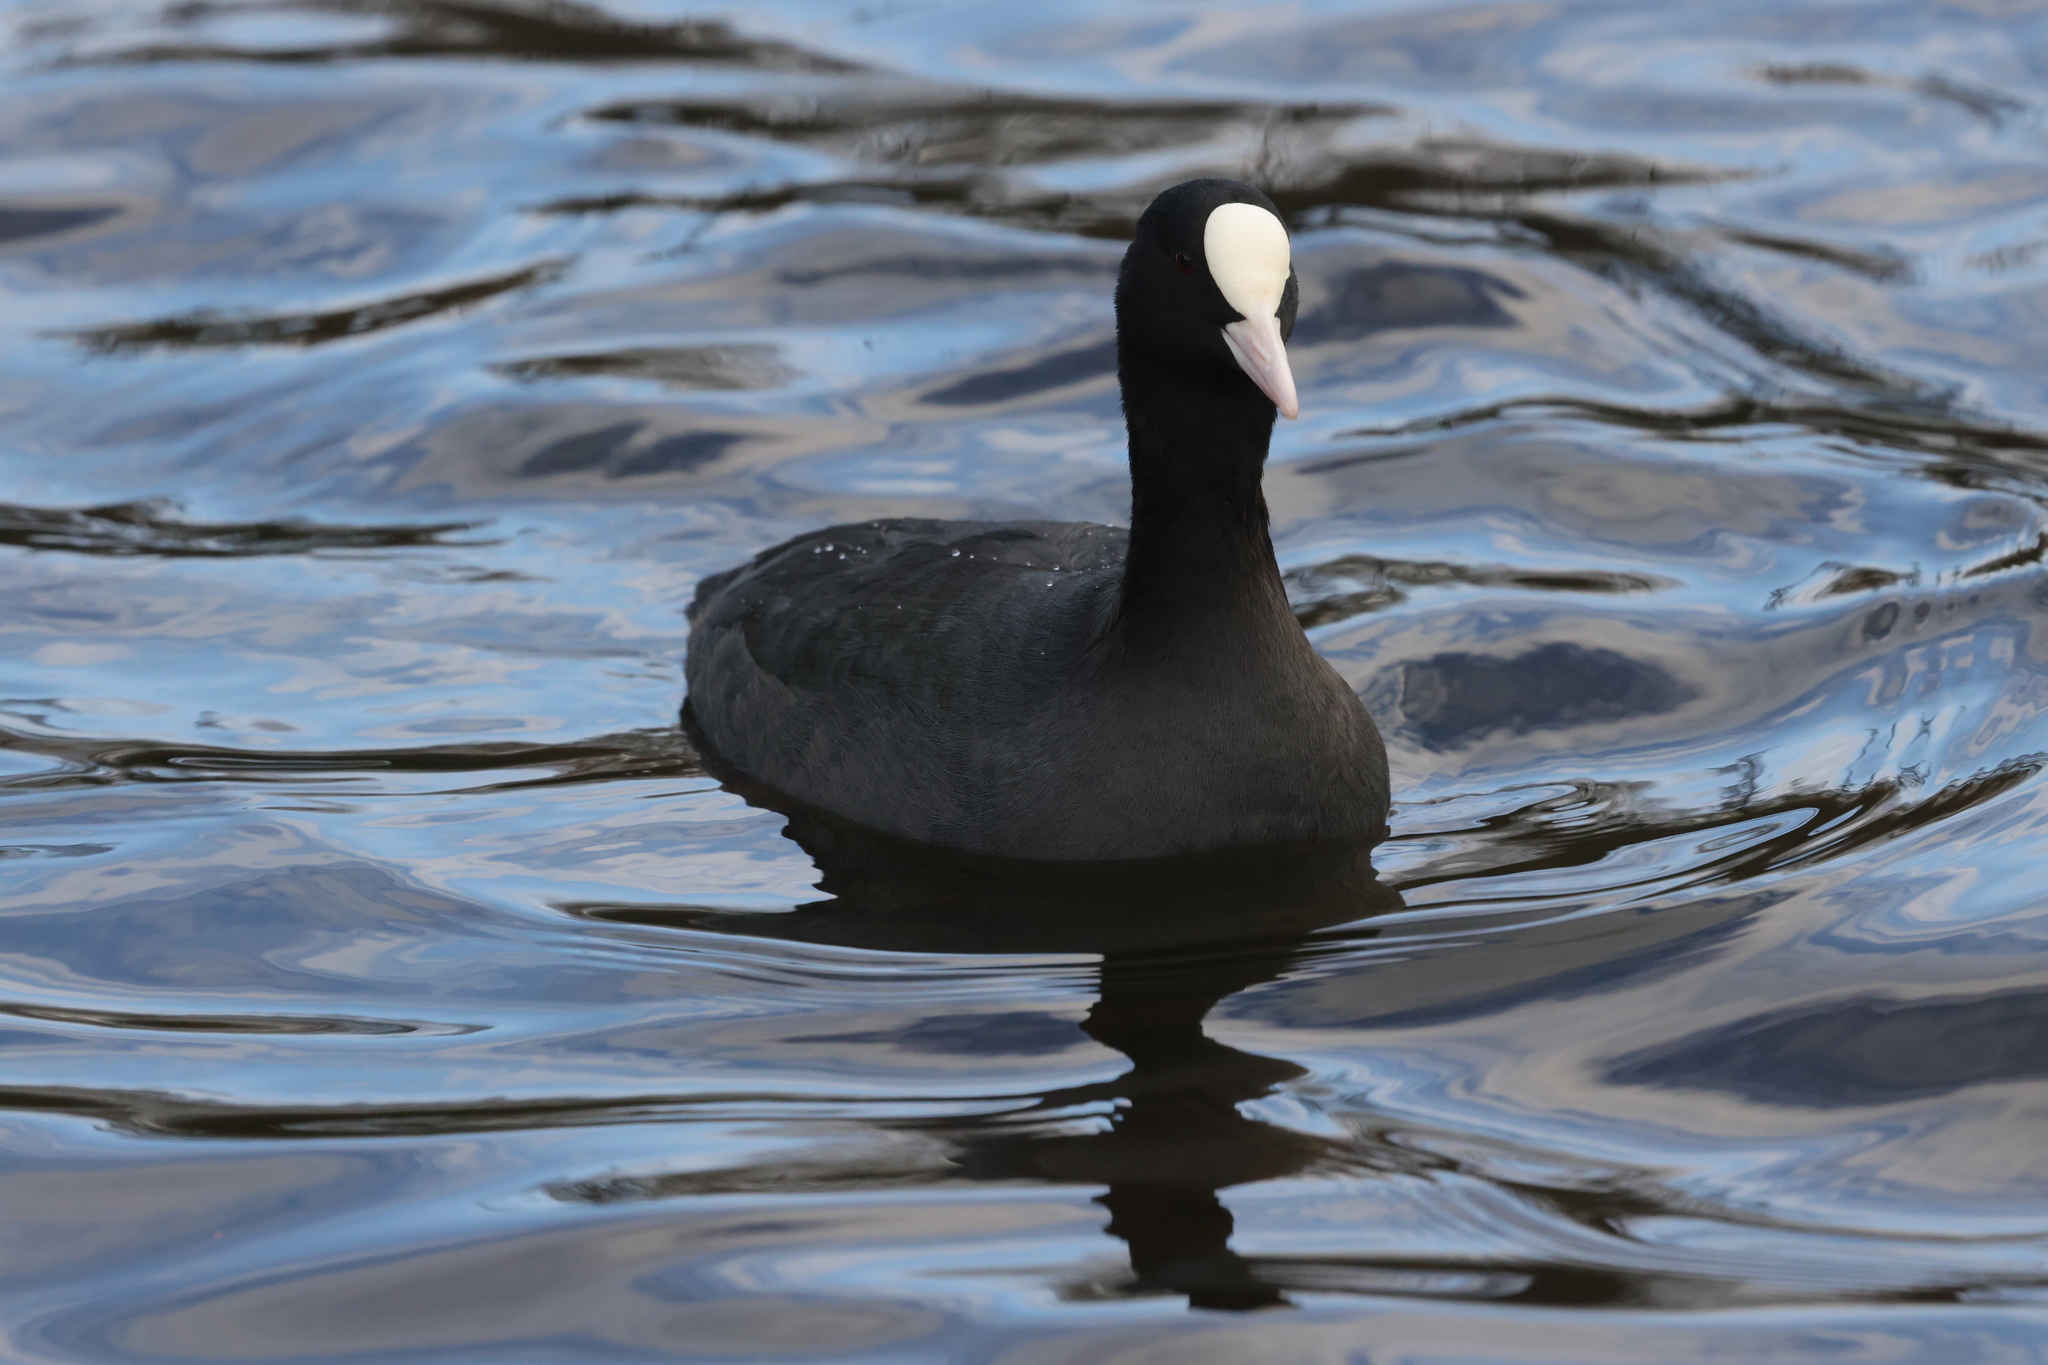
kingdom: Animalia
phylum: Chordata
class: Aves
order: Gruiformes
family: Rallidae
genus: Fulica
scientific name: Fulica atra
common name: Eurasian coot
